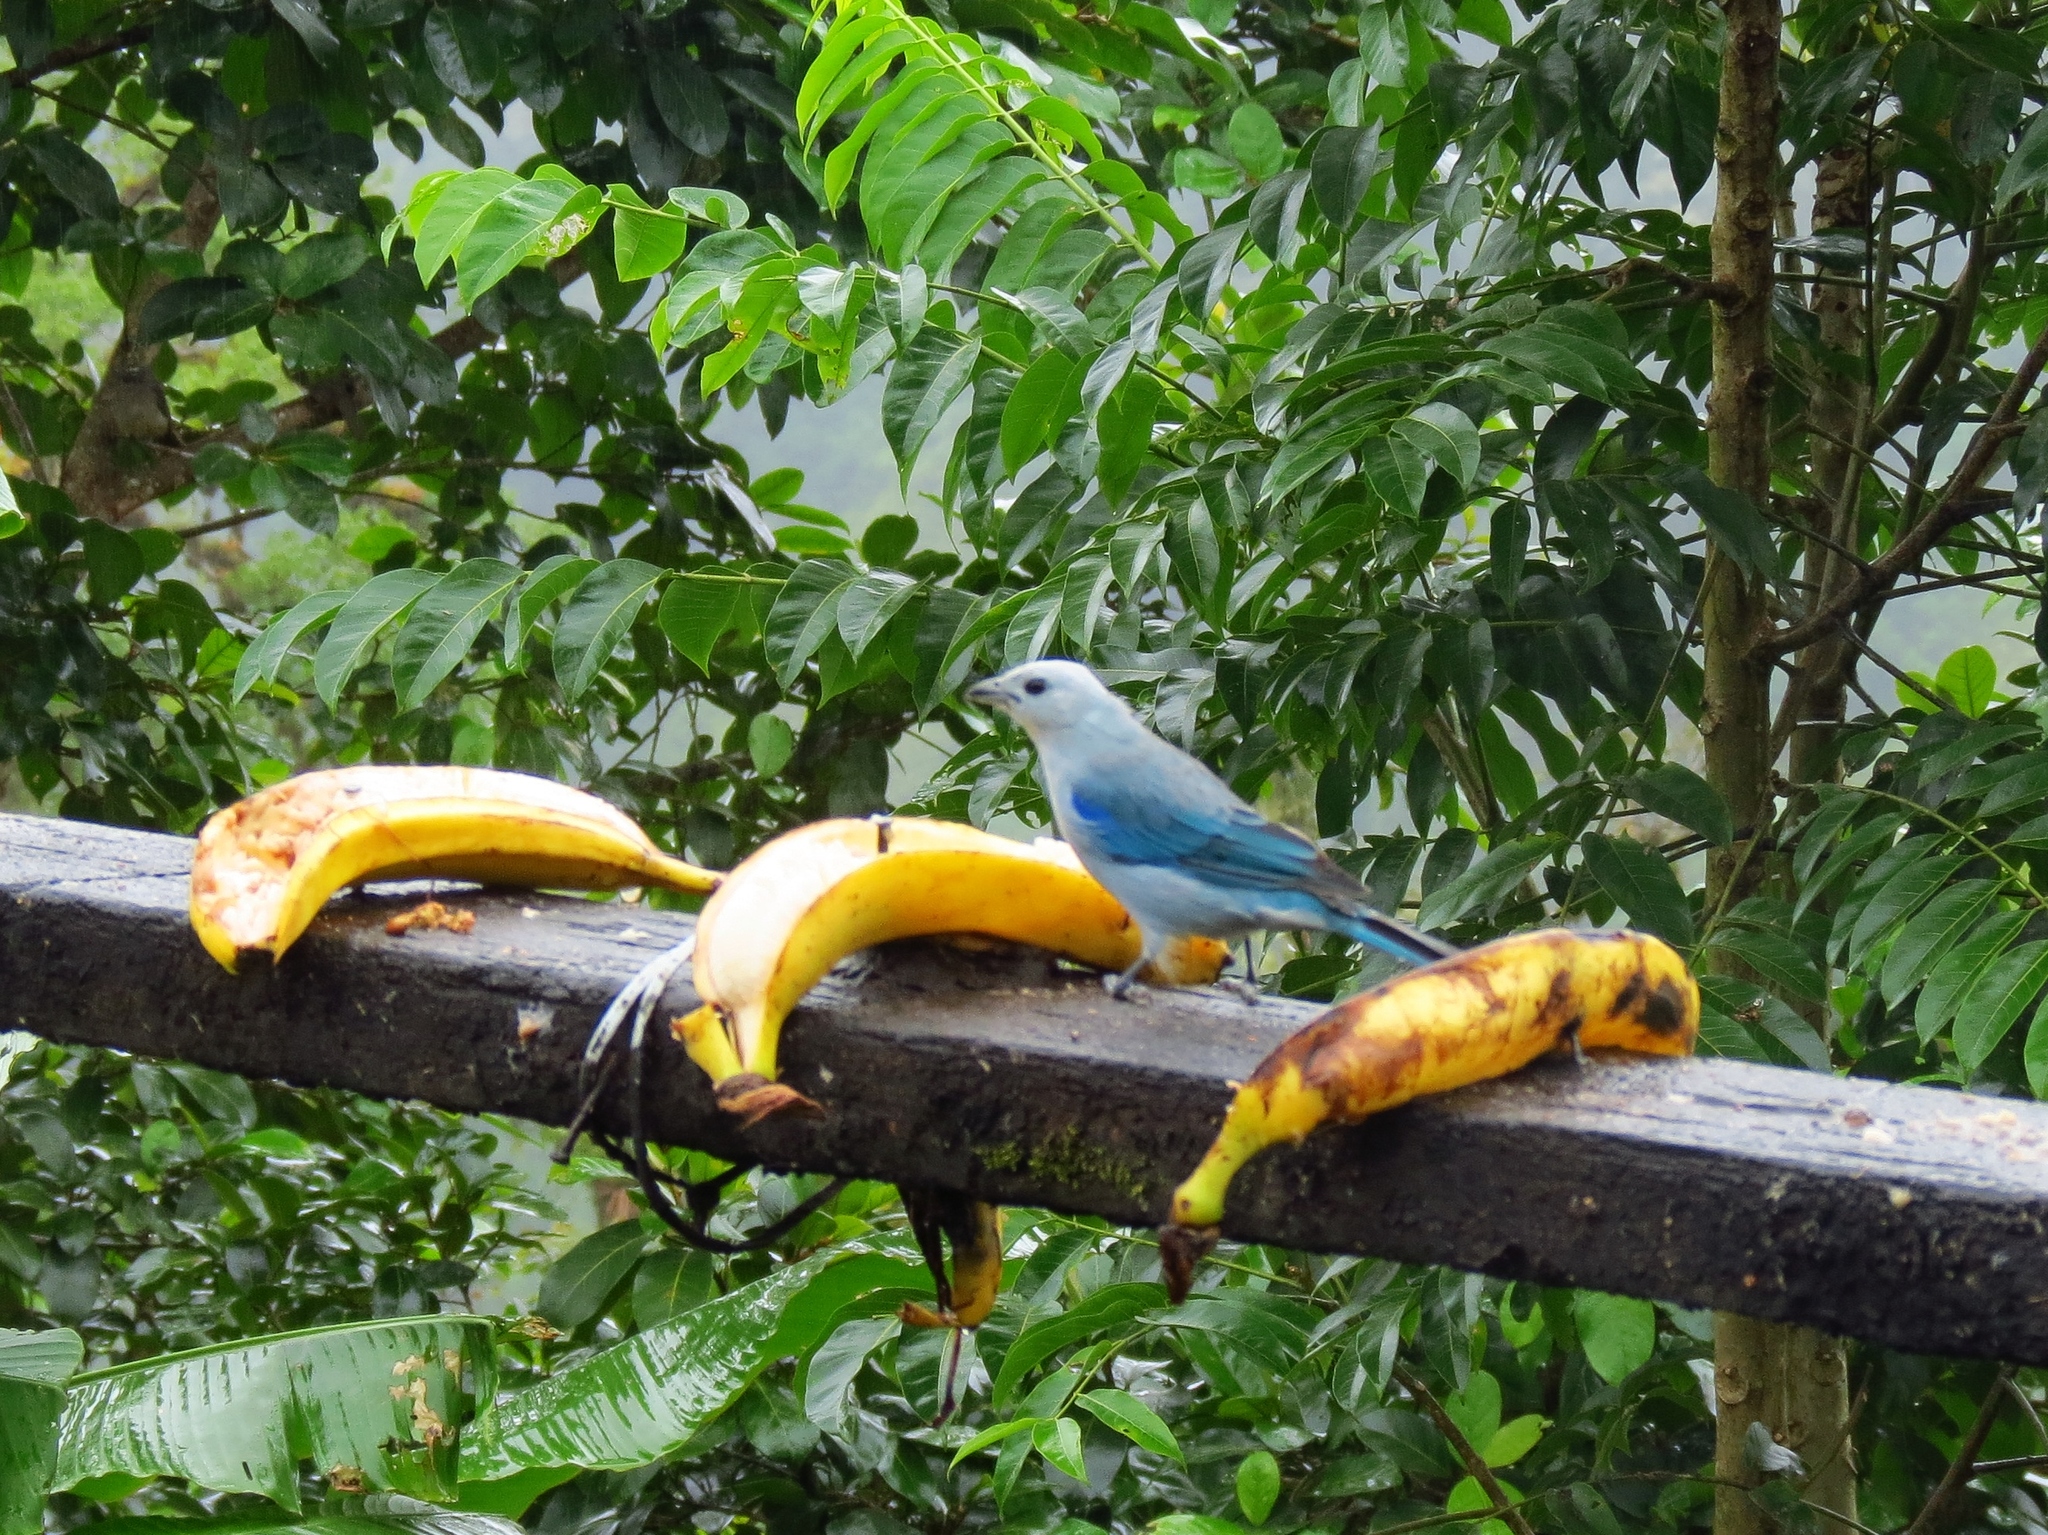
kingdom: Animalia
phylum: Chordata
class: Aves
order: Passeriformes
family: Thraupidae
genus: Thraupis
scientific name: Thraupis episcopus
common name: Blue-grey tanager
